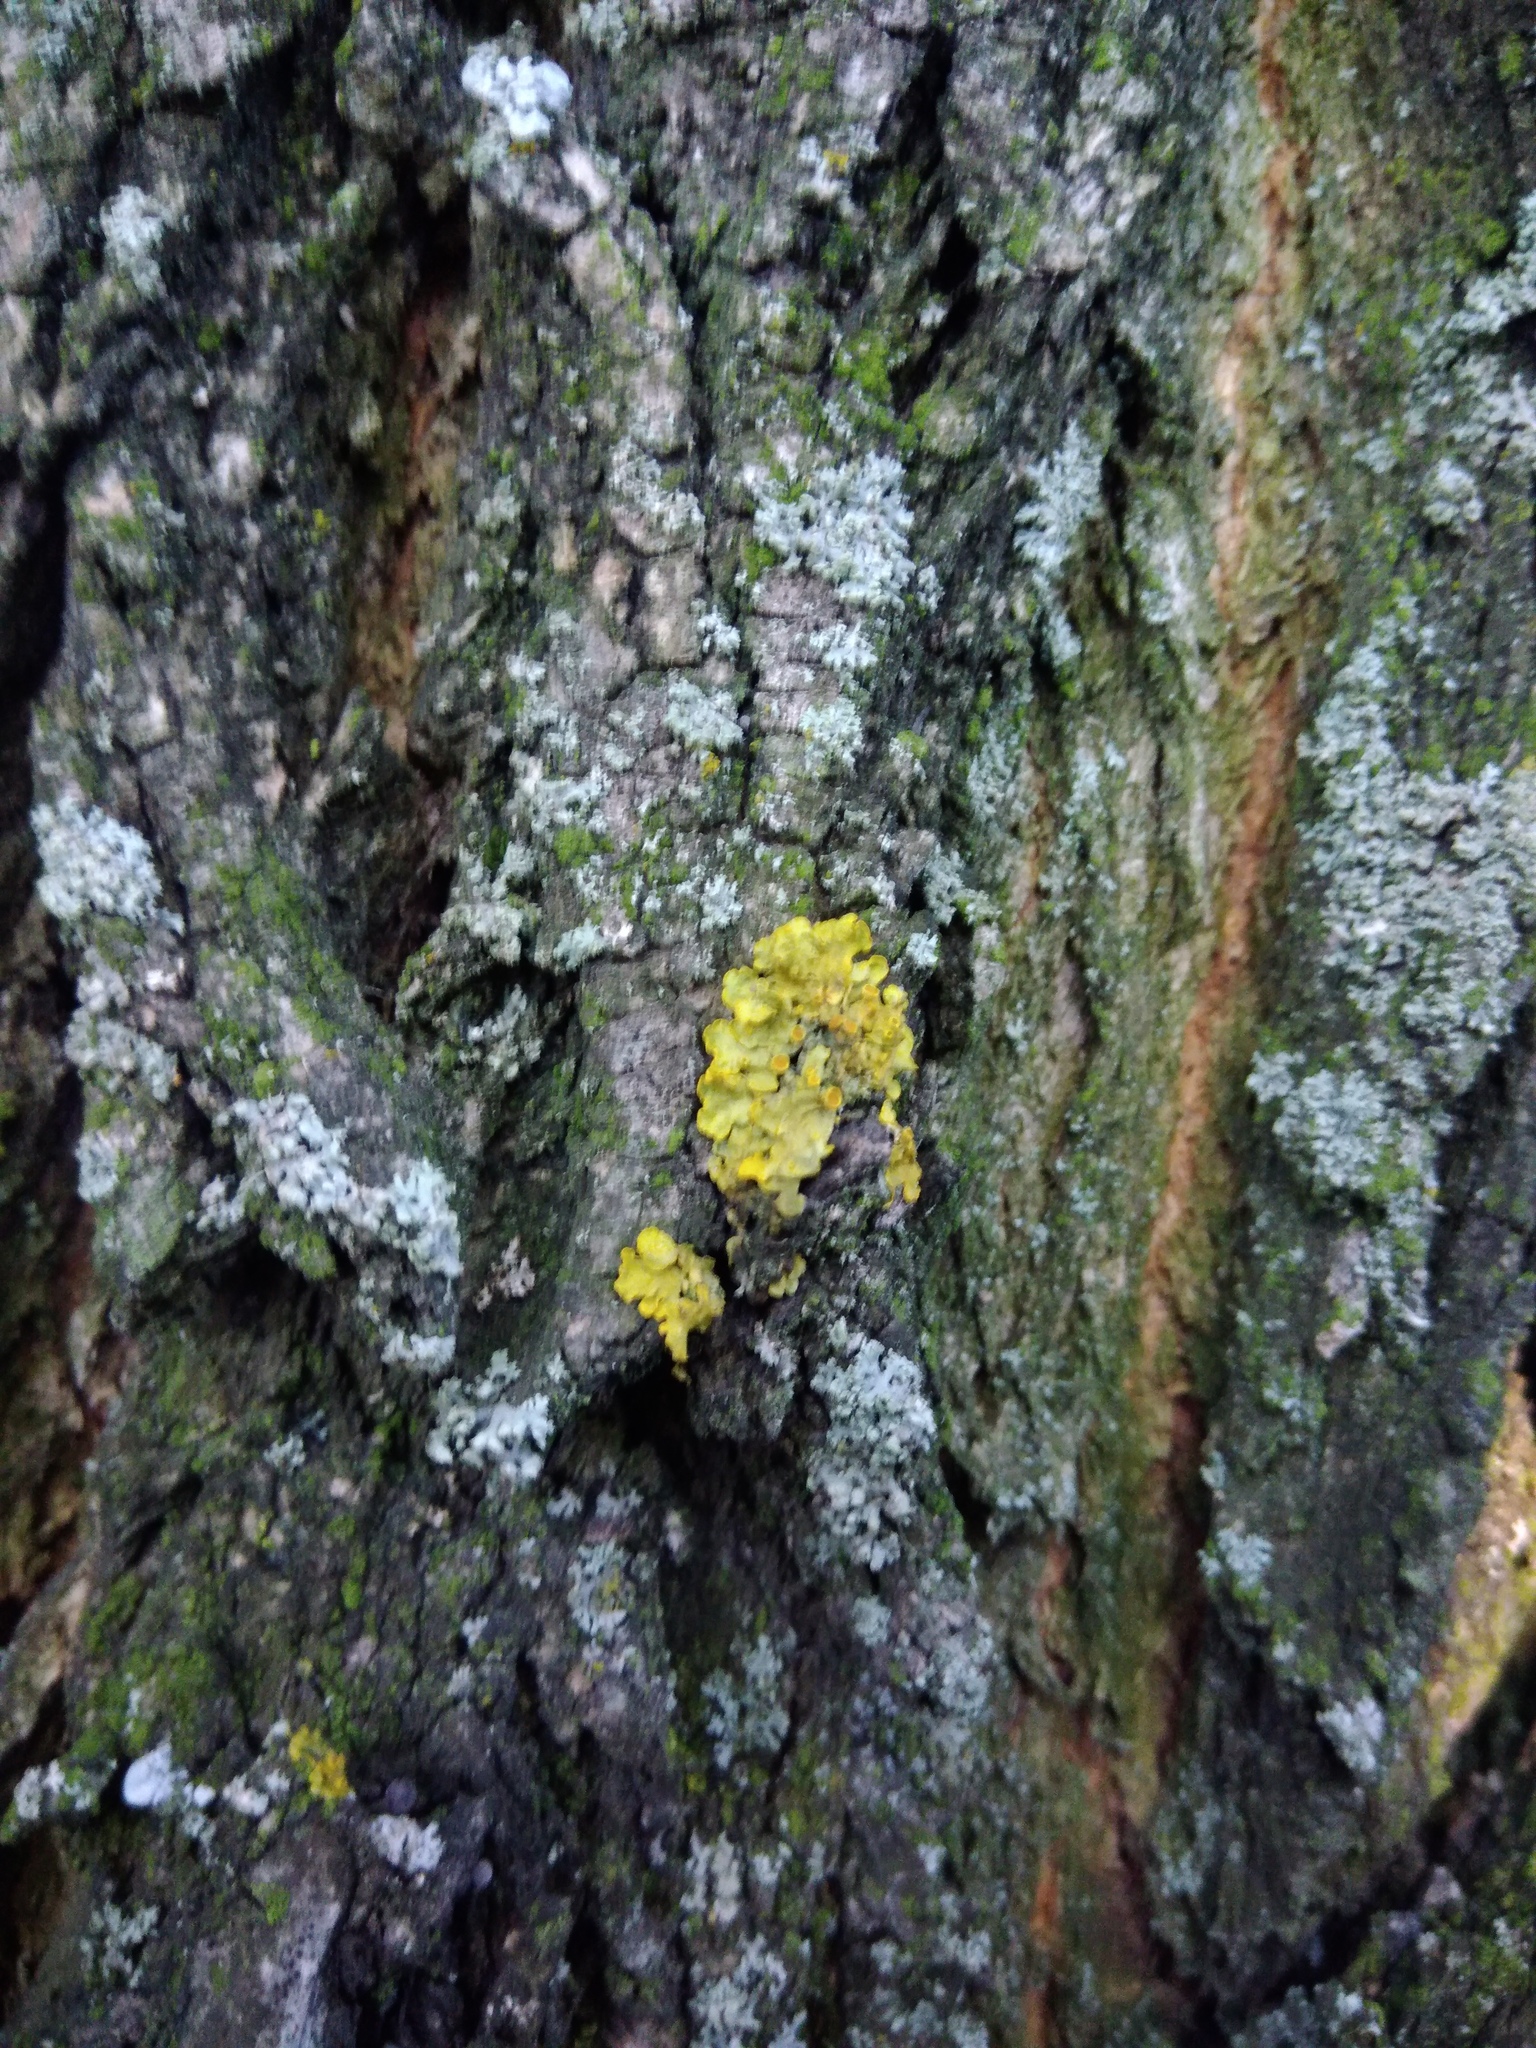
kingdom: Fungi
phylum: Ascomycota
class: Lecanoromycetes
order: Teloschistales
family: Teloschistaceae
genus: Xanthoria
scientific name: Xanthoria parietina
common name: Common orange lichen
